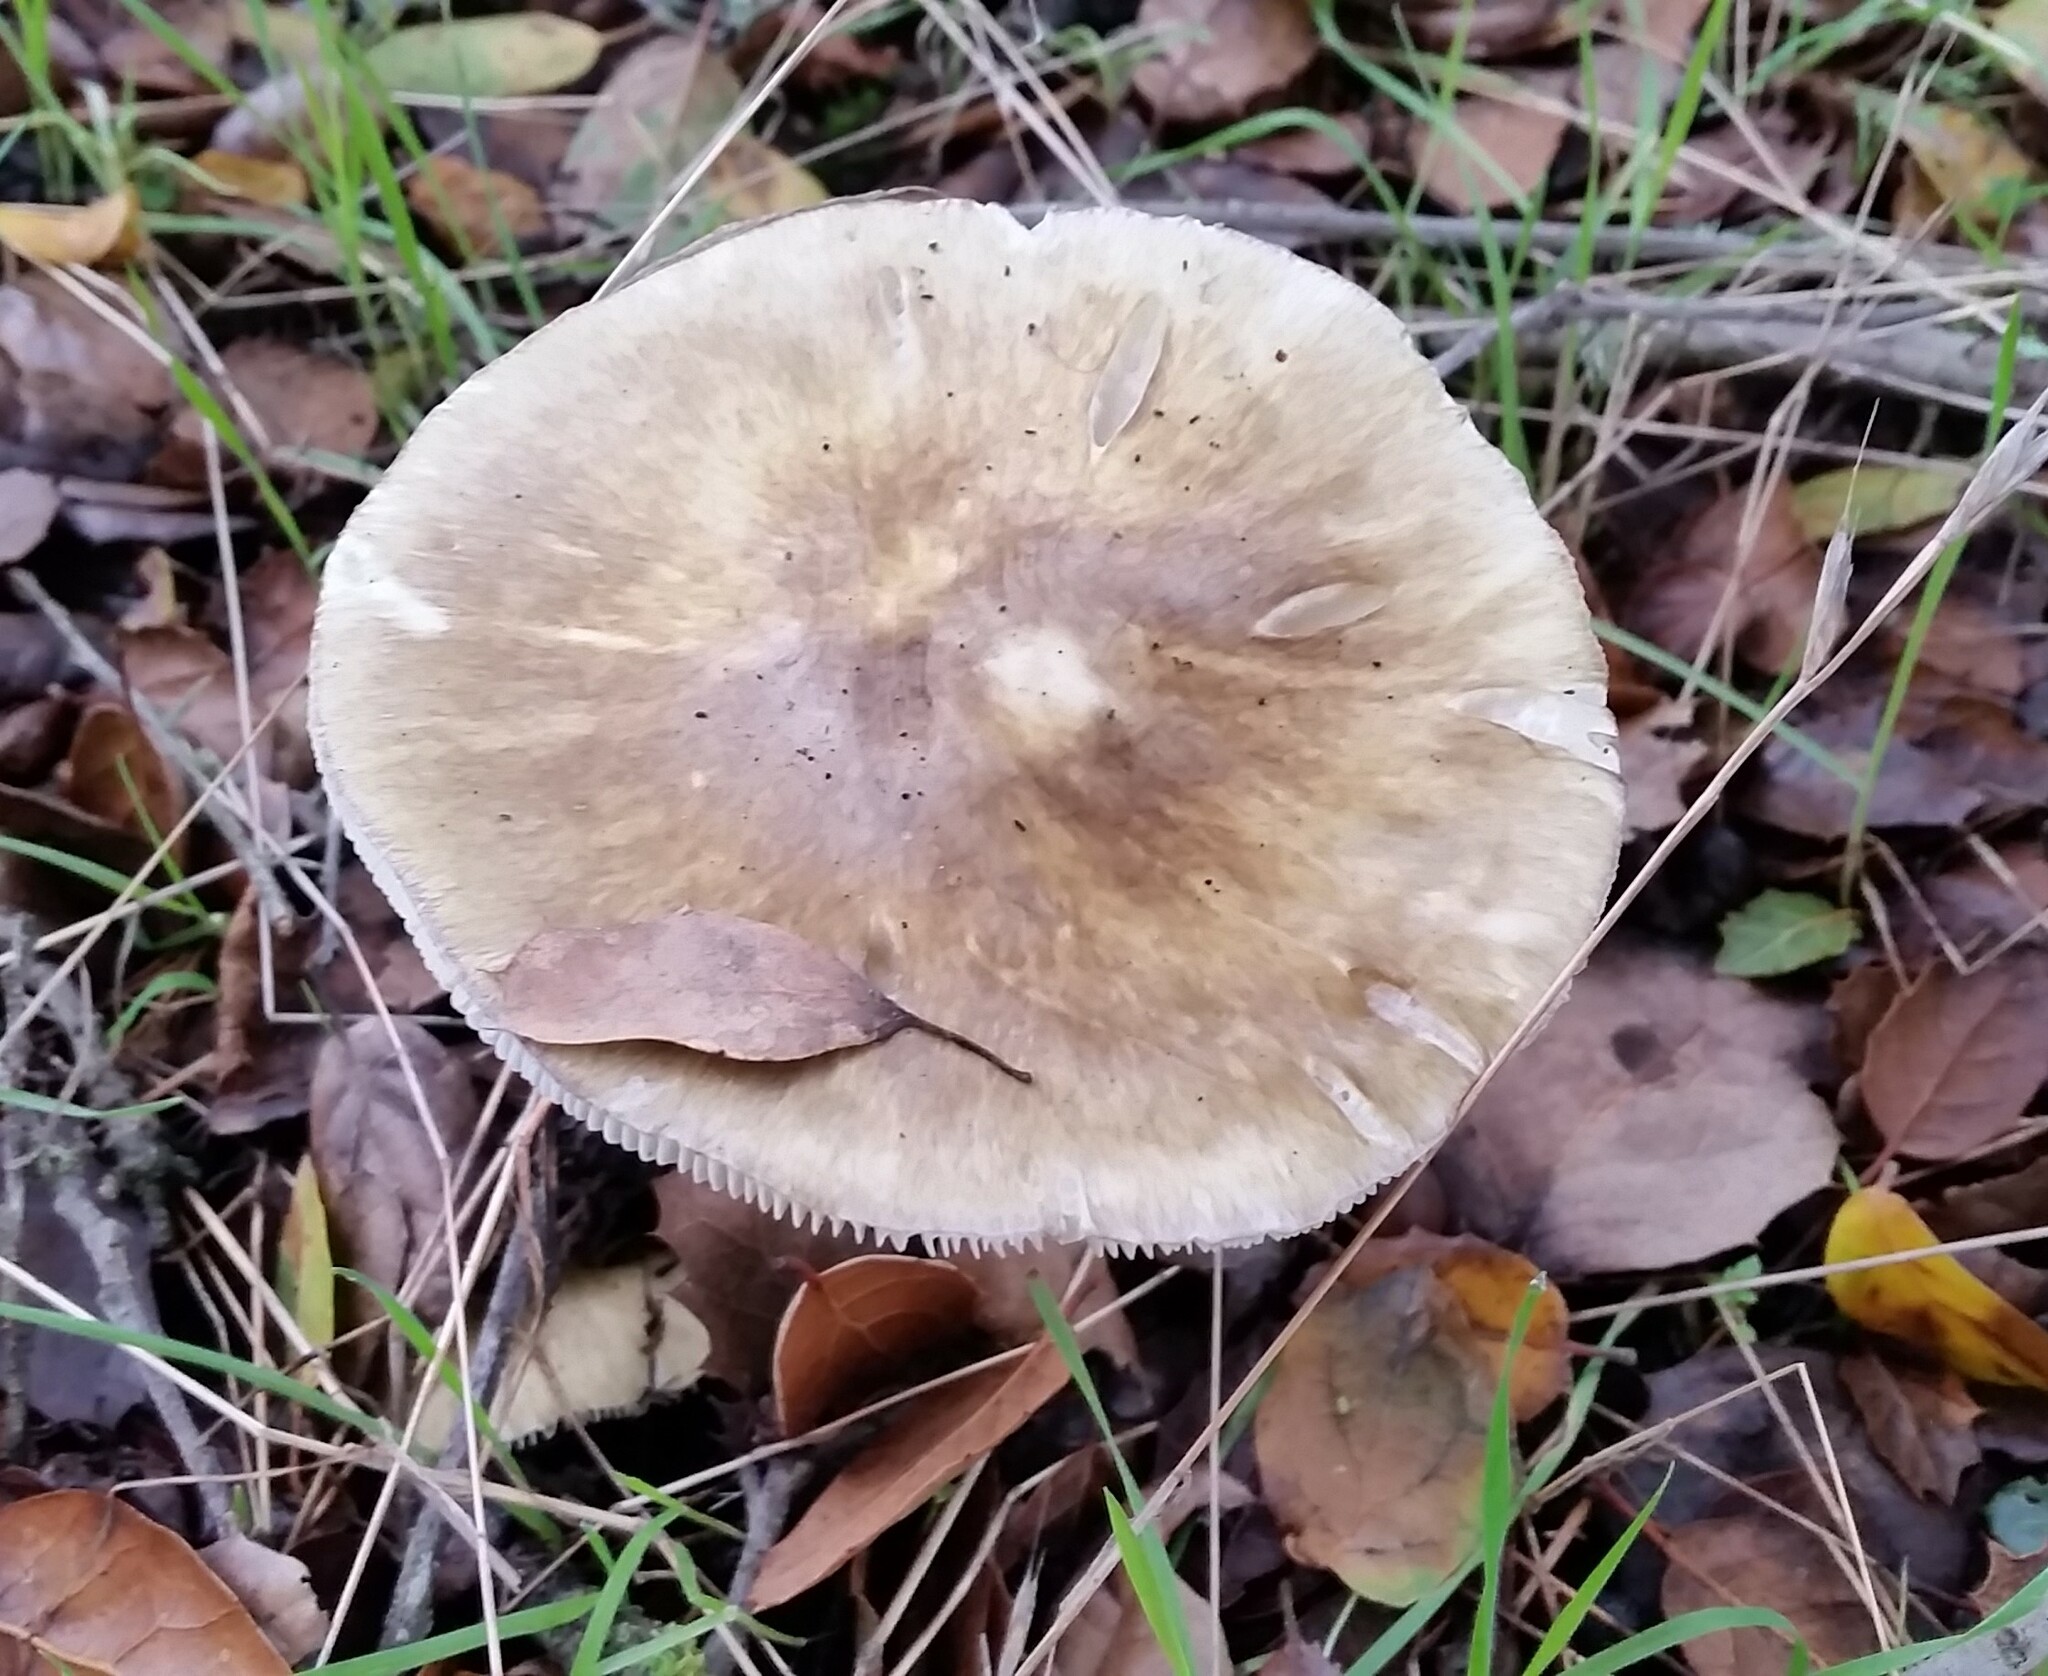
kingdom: Fungi
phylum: Basidiomycota
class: Agaricomycetes
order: Agaricales
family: Amanitaceae
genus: Amanita
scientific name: Amanita phalloides
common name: Death cap
